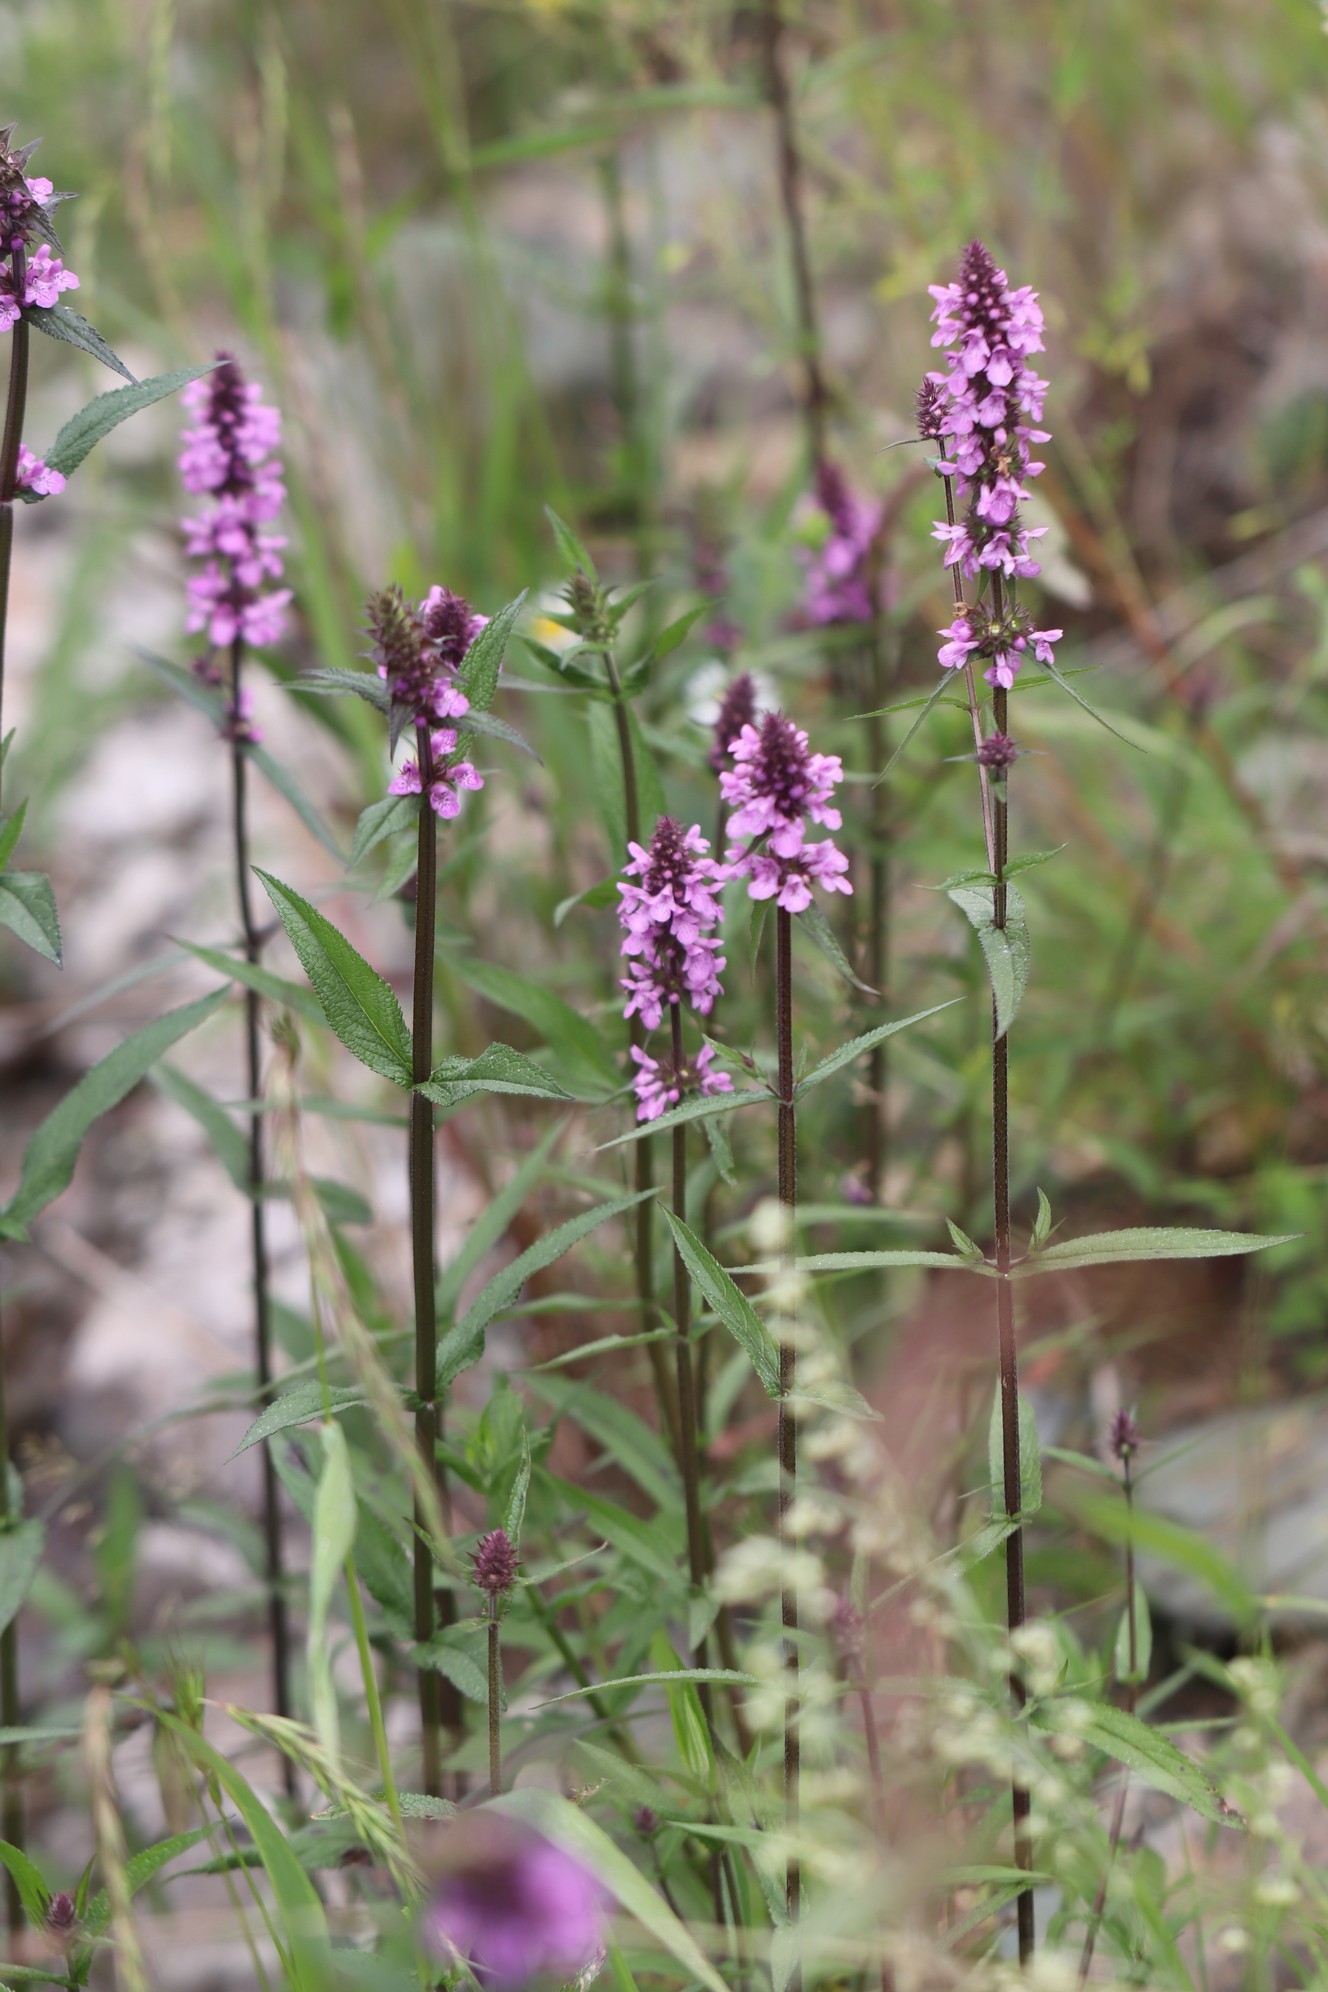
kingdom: Plantae
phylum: Tracheophyta
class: Magnoliopsida
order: Lamiales
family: Lamiaceae
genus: Stachys
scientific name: Stachys palustris
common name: Marsh woundwort
